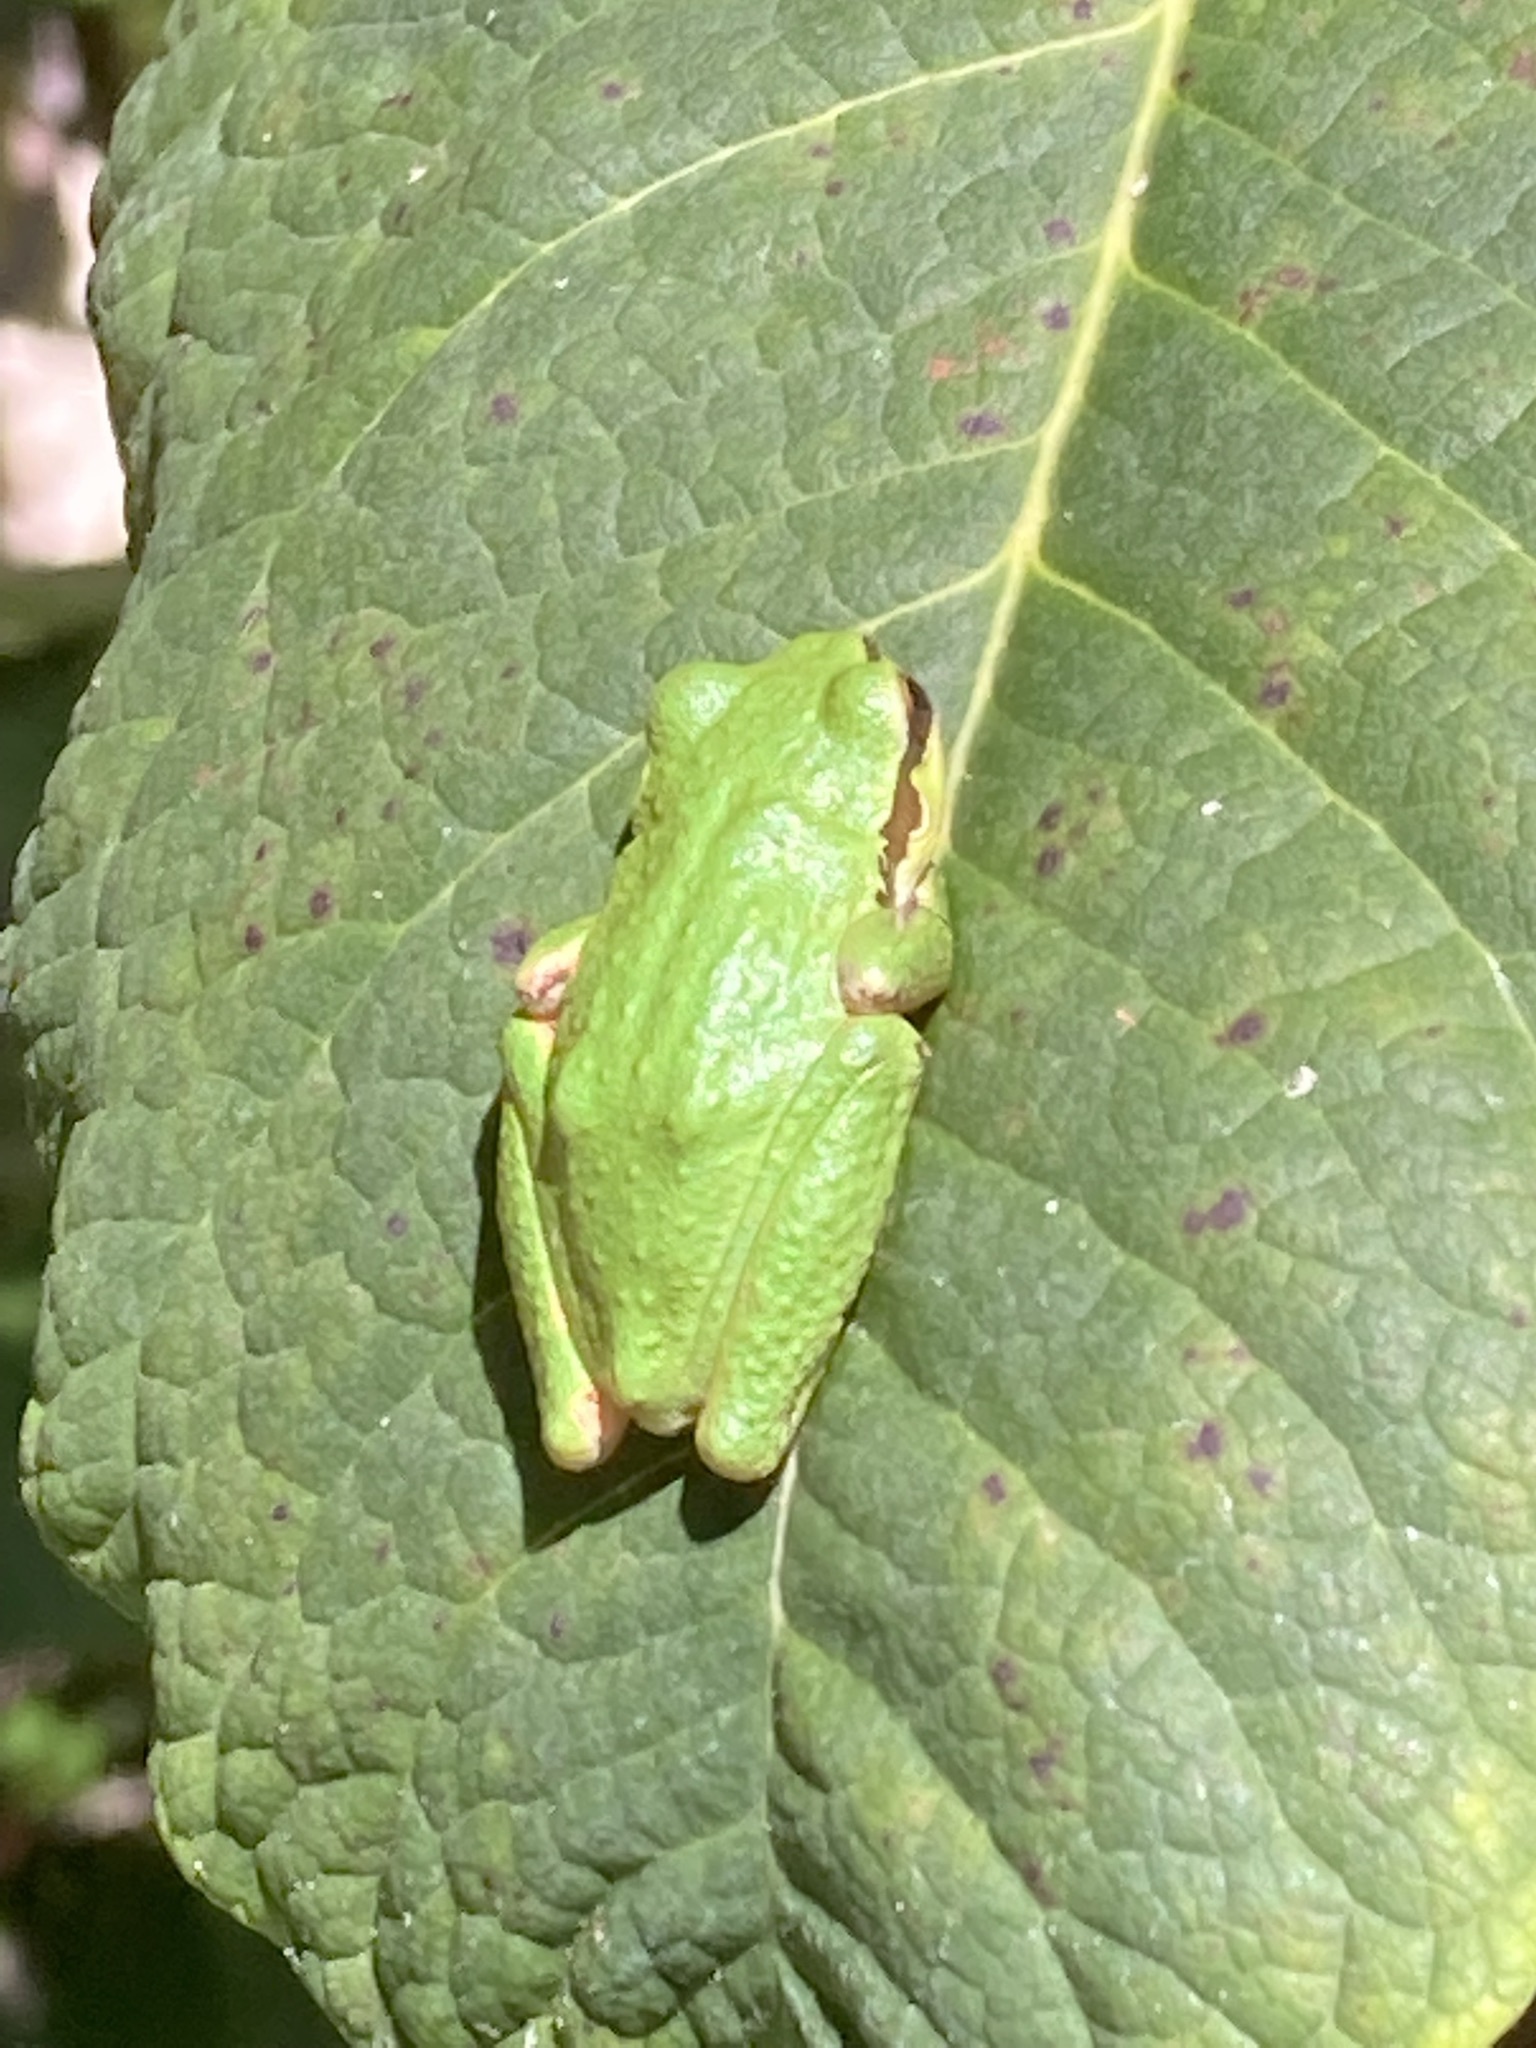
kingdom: Animalia
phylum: Chordata
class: Amphibia
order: Anura
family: Hylidae
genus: Pseudacris
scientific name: Pseudacris regilla
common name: Pacific chorus frog
